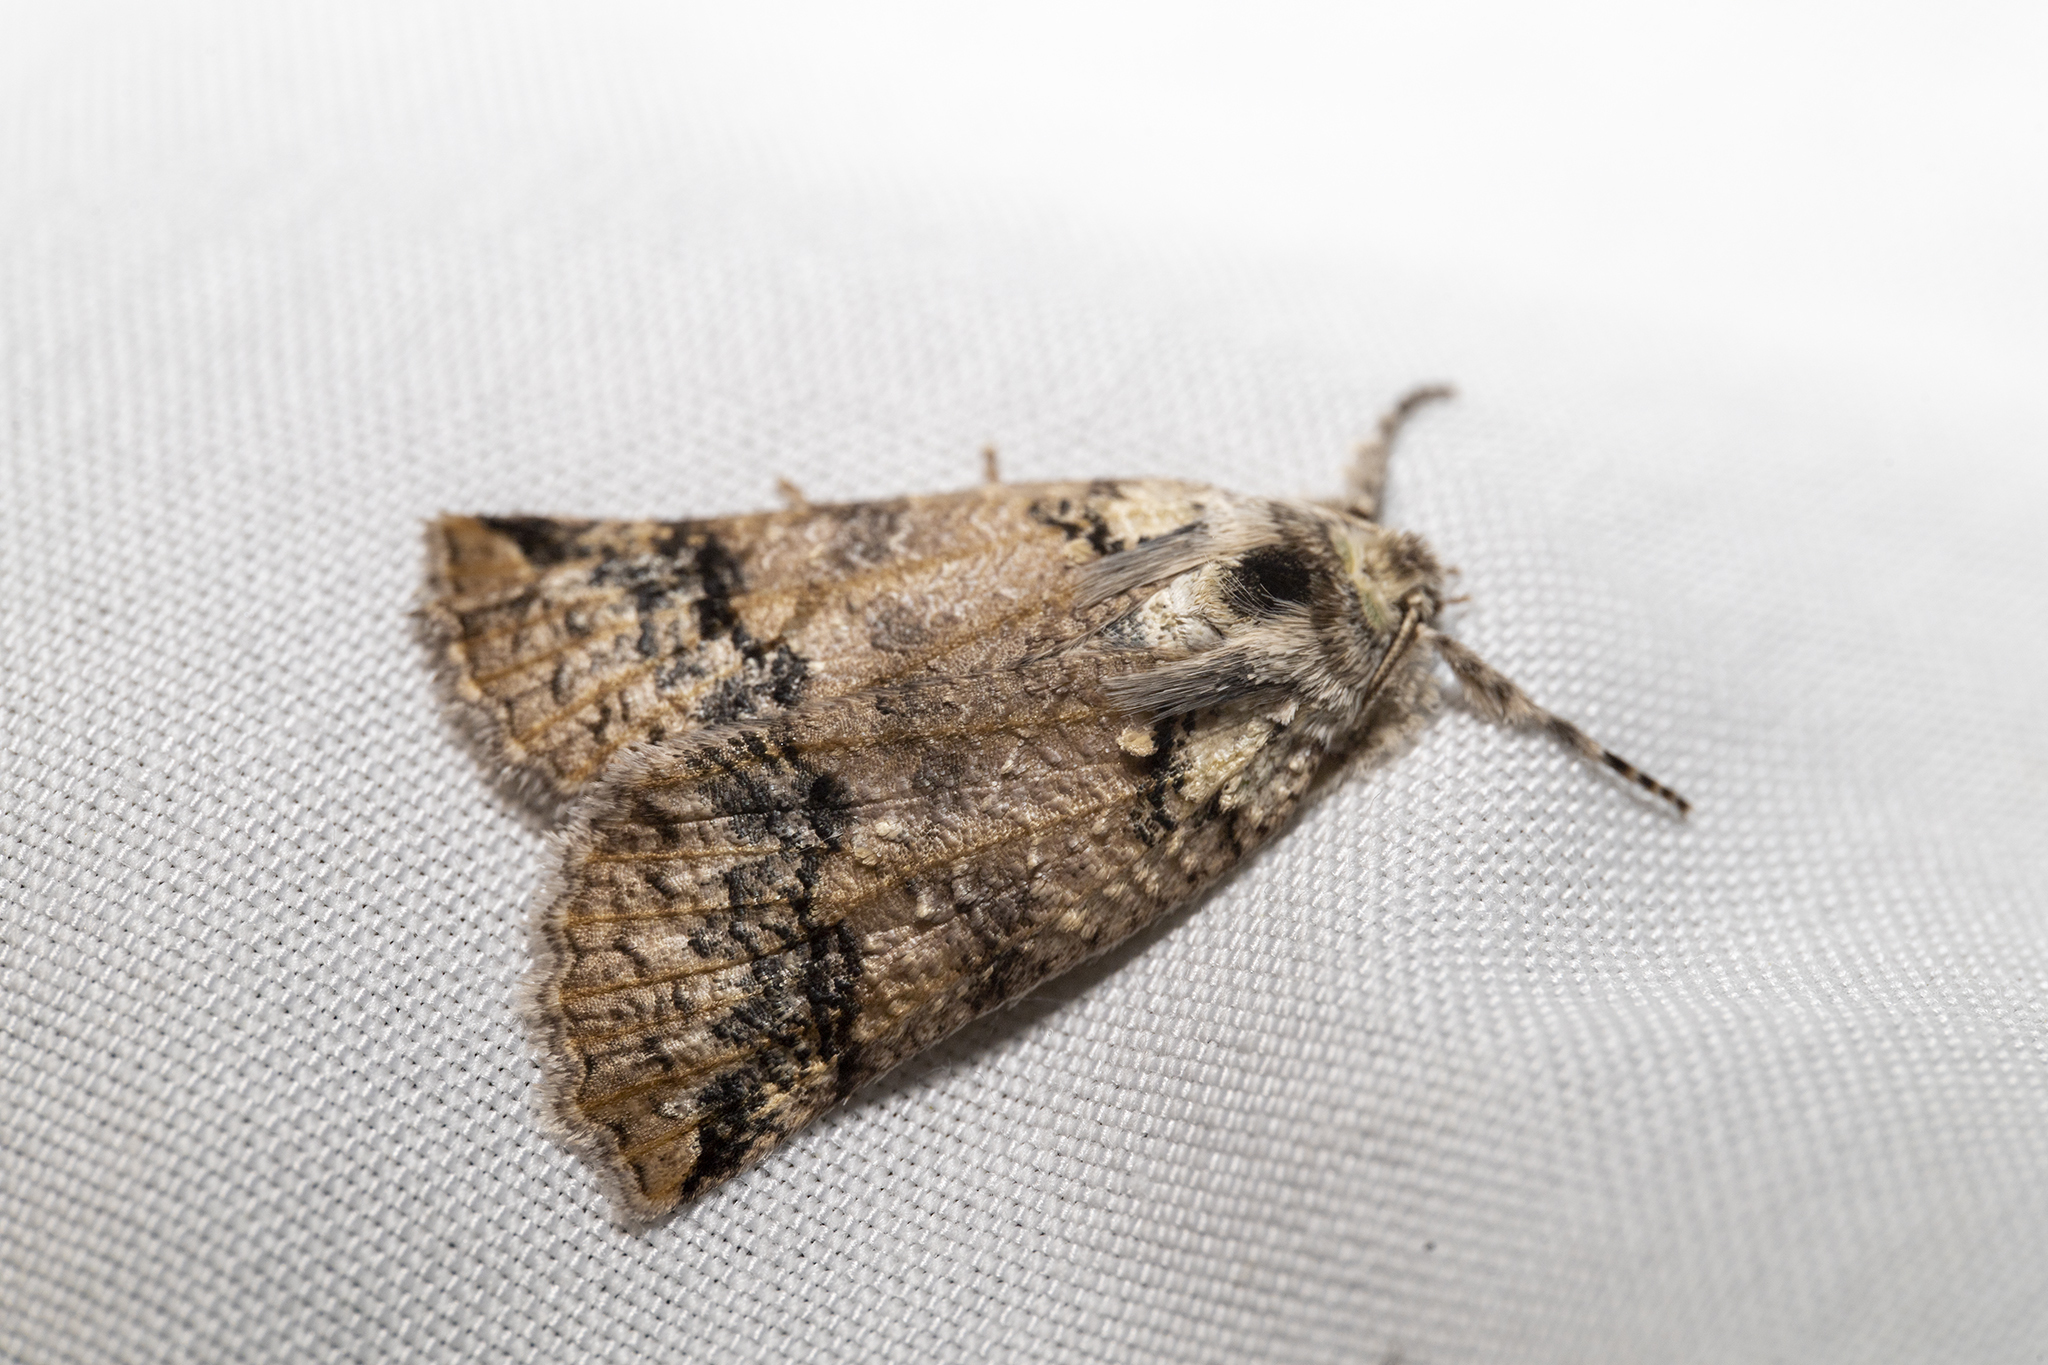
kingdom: Animalia
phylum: Arthropoda
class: Insecta
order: Lepidoptera
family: Geometridae
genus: Declana
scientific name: Declana floccosa
